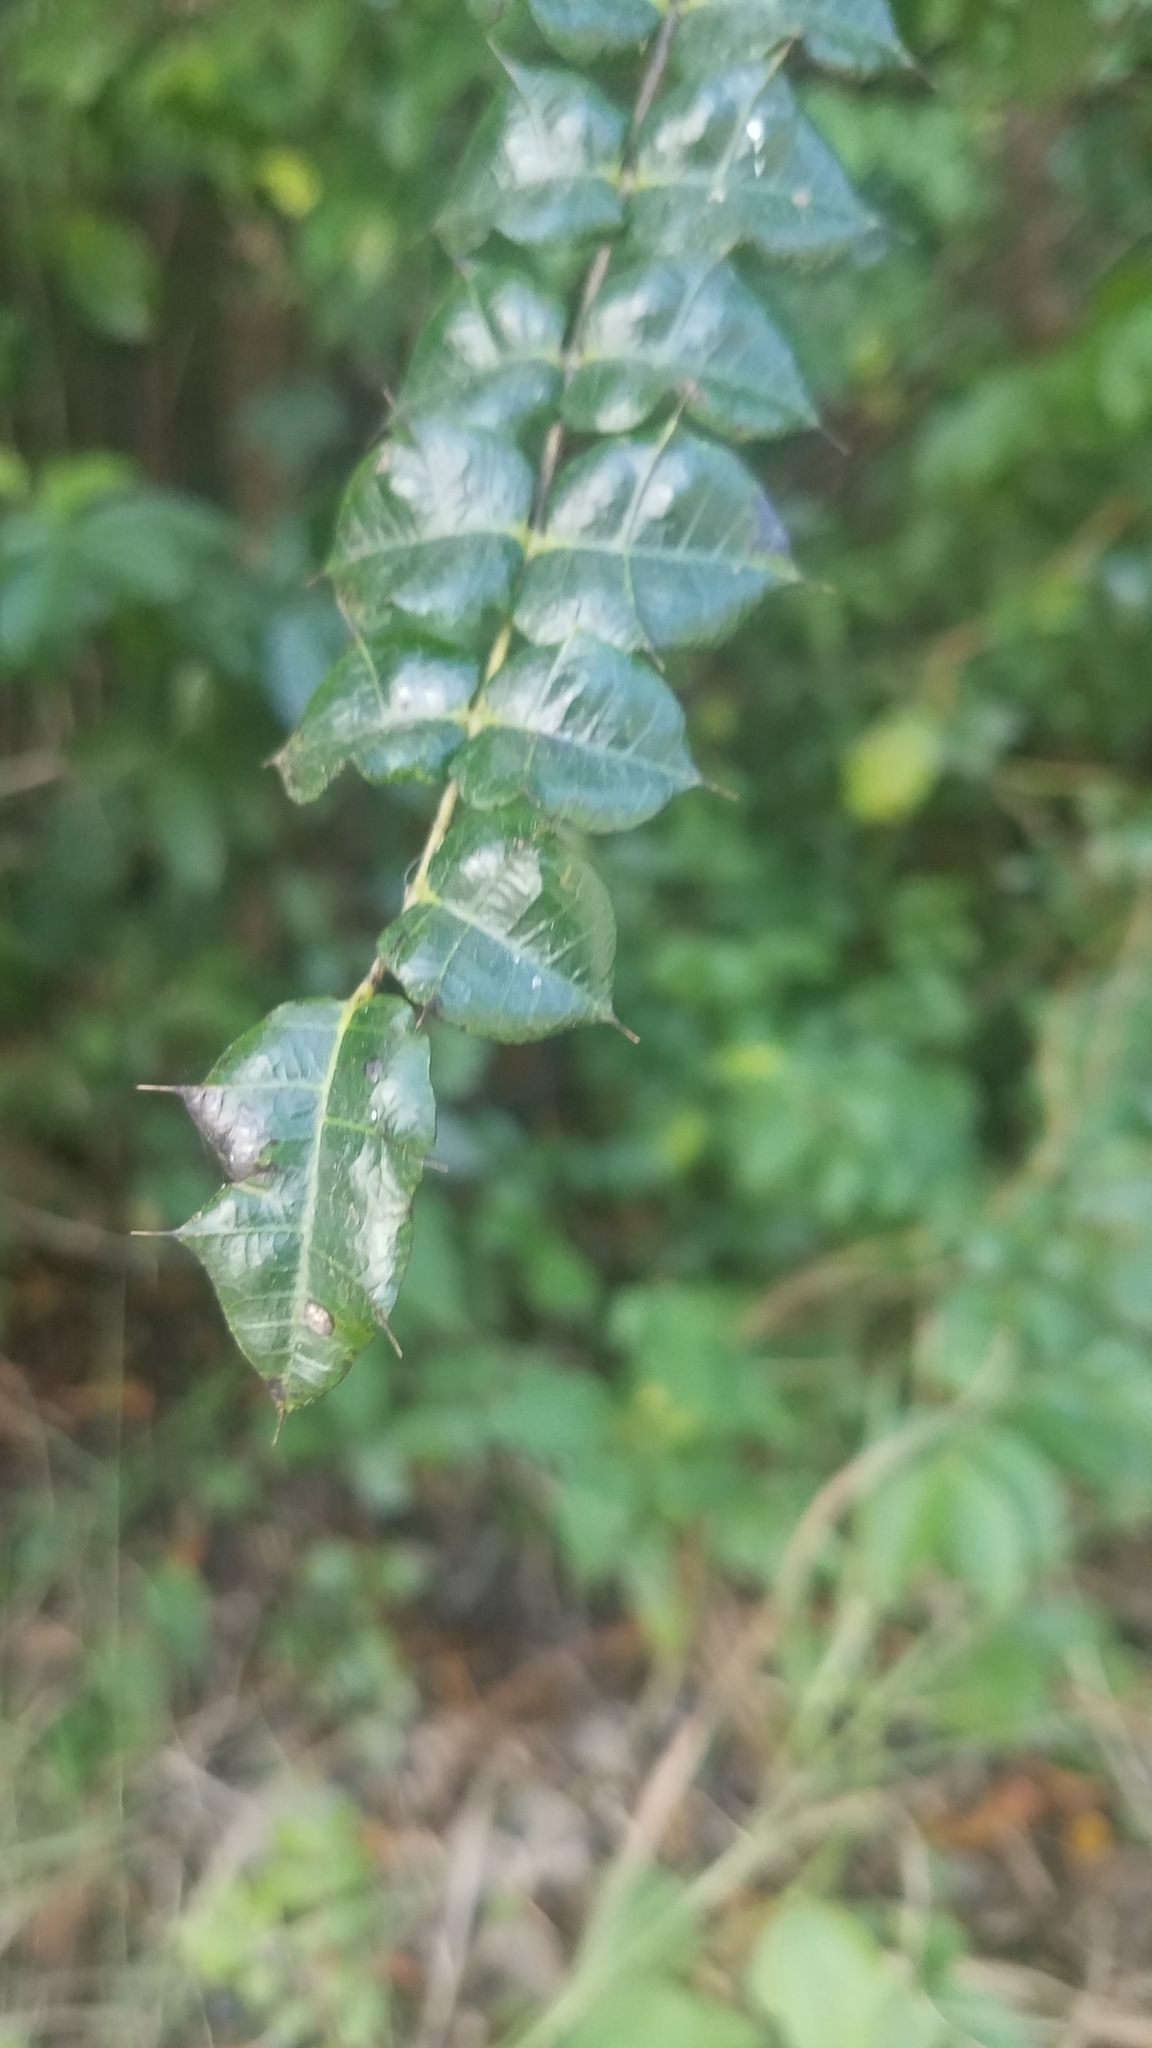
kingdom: Plantae
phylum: Tracheophyta
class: Magnoliopsida
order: Sapindales
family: Anacardiaceae
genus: Comocladia
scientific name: Comocladia dodonaea
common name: Poison ash
